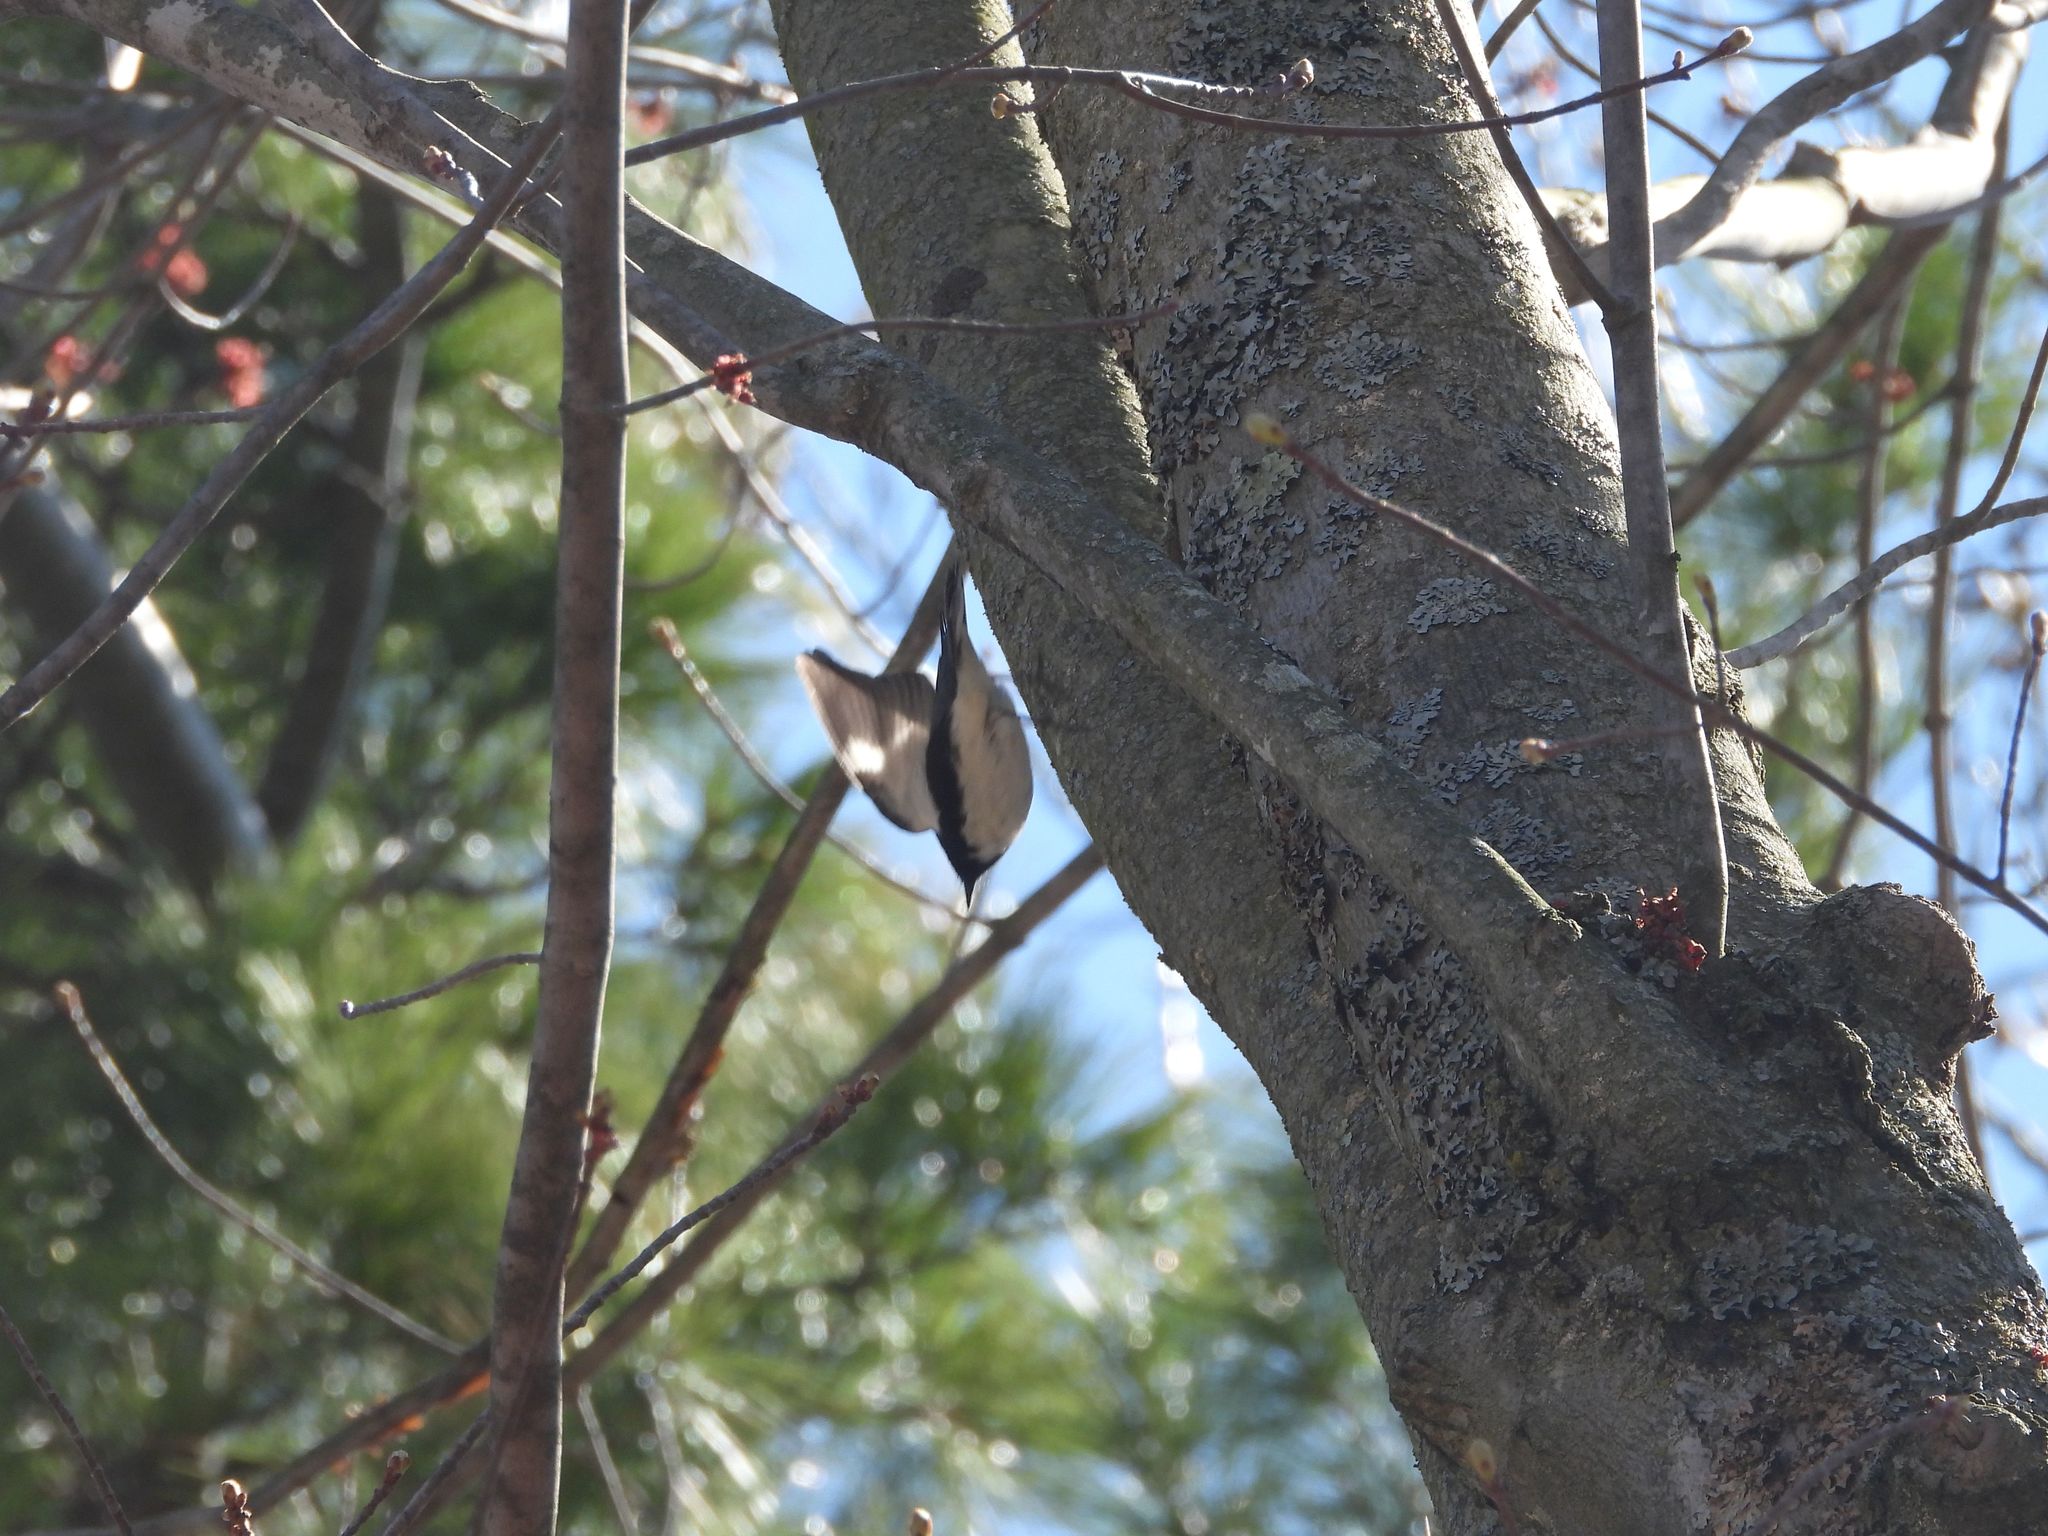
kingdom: Animalia
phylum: Chordata
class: Aves
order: Passeriformes
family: Parulidae
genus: Setophaga
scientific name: Setophaga caerulescens
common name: Black-throated blue warbler
